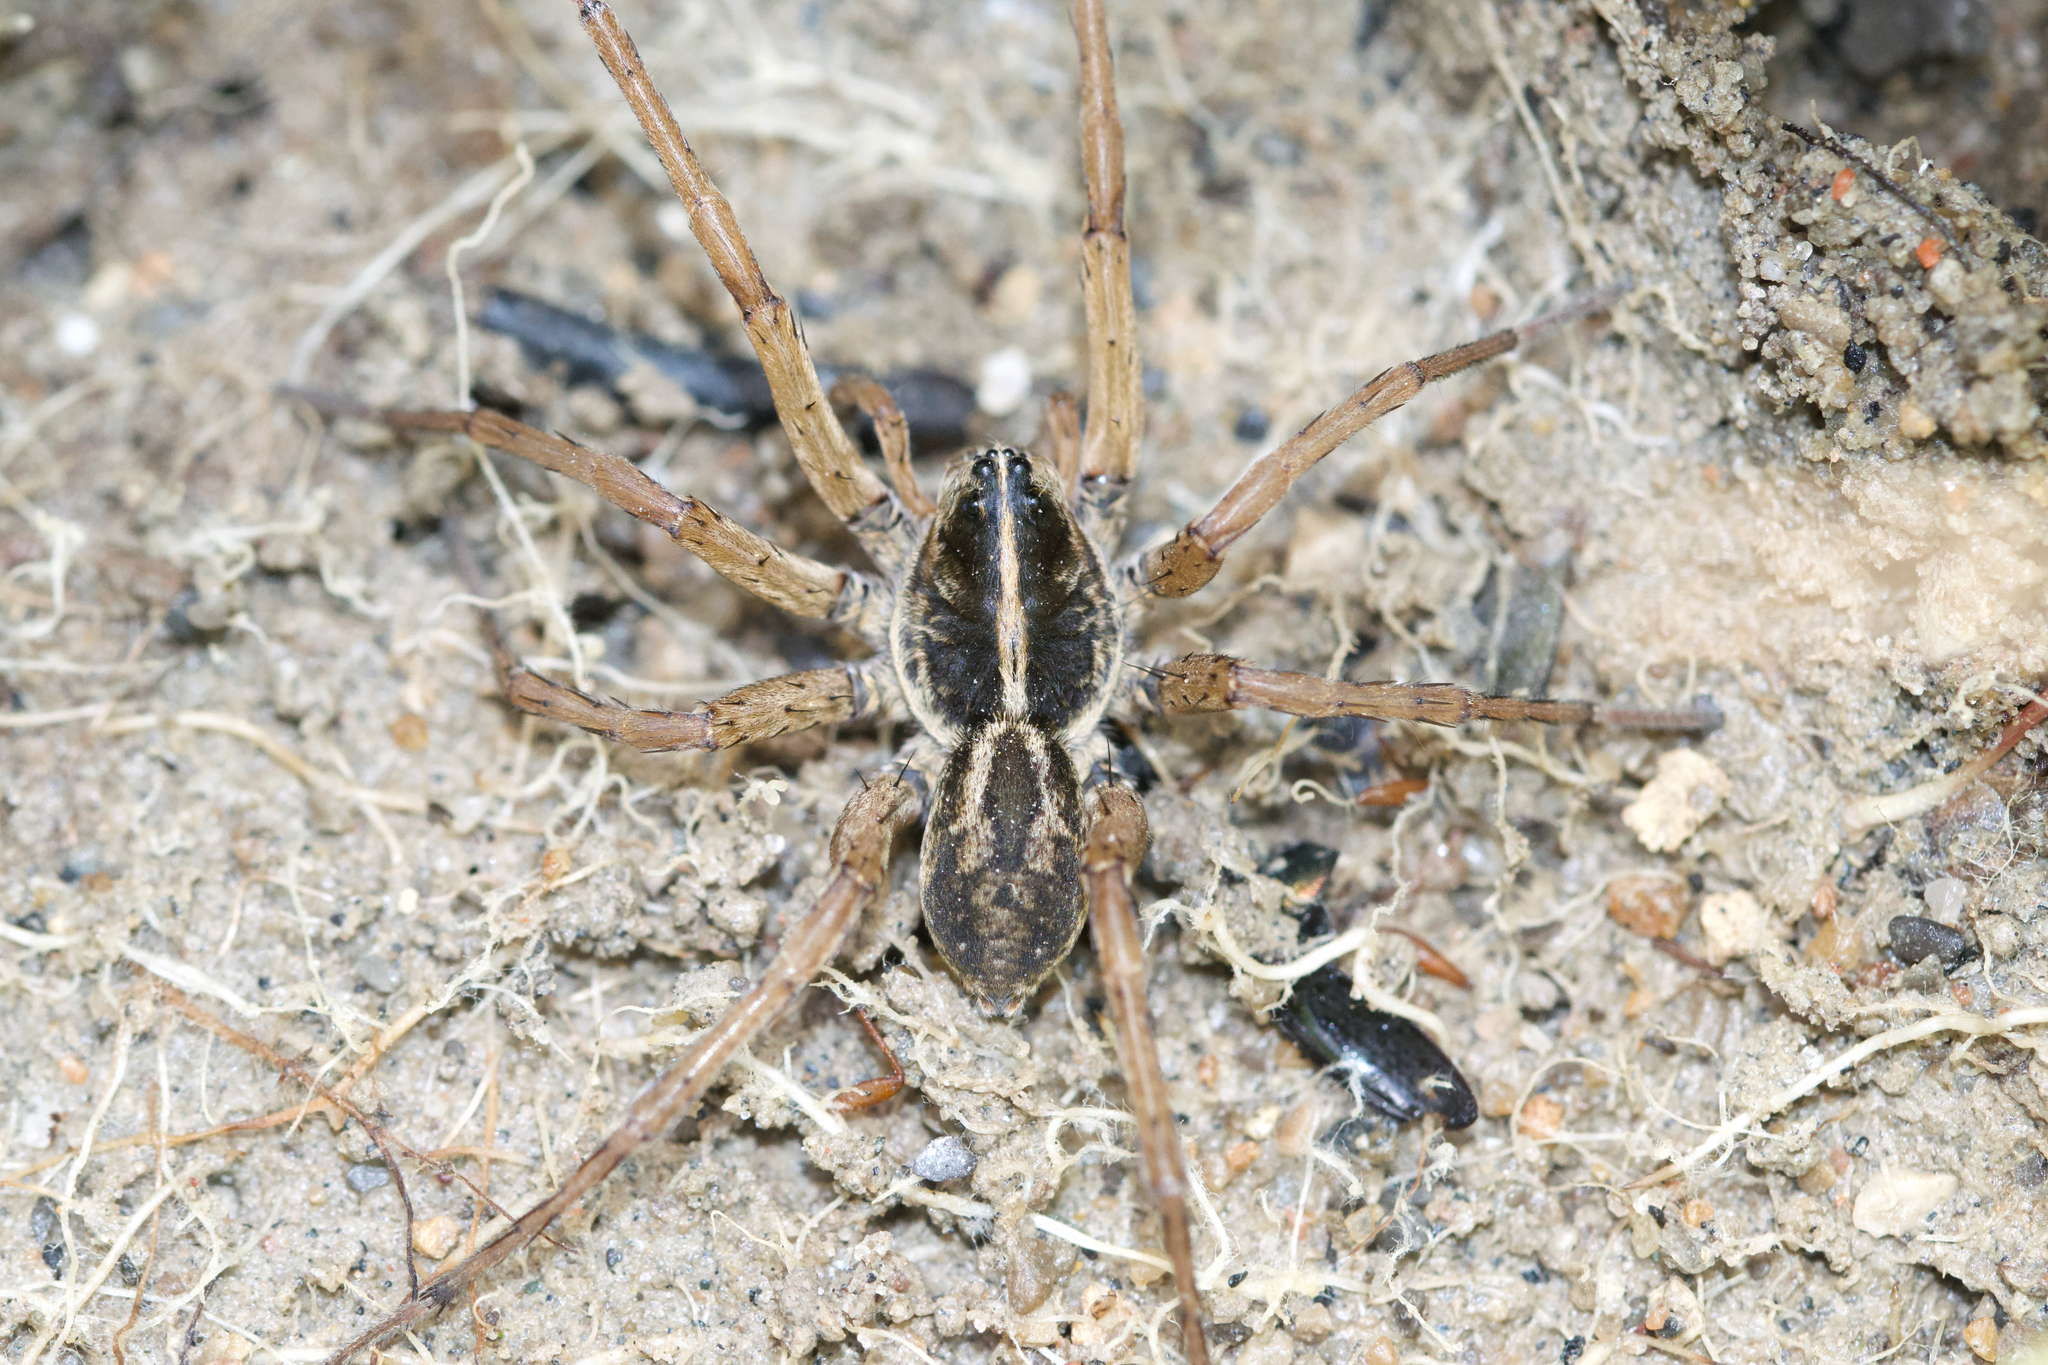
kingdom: Animalia
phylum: Arthropoda
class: Arachnida
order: Araneae
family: Lycosidae
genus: Tigrosa
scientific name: Tigrosa helluo
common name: Wetland giant wolf spider
